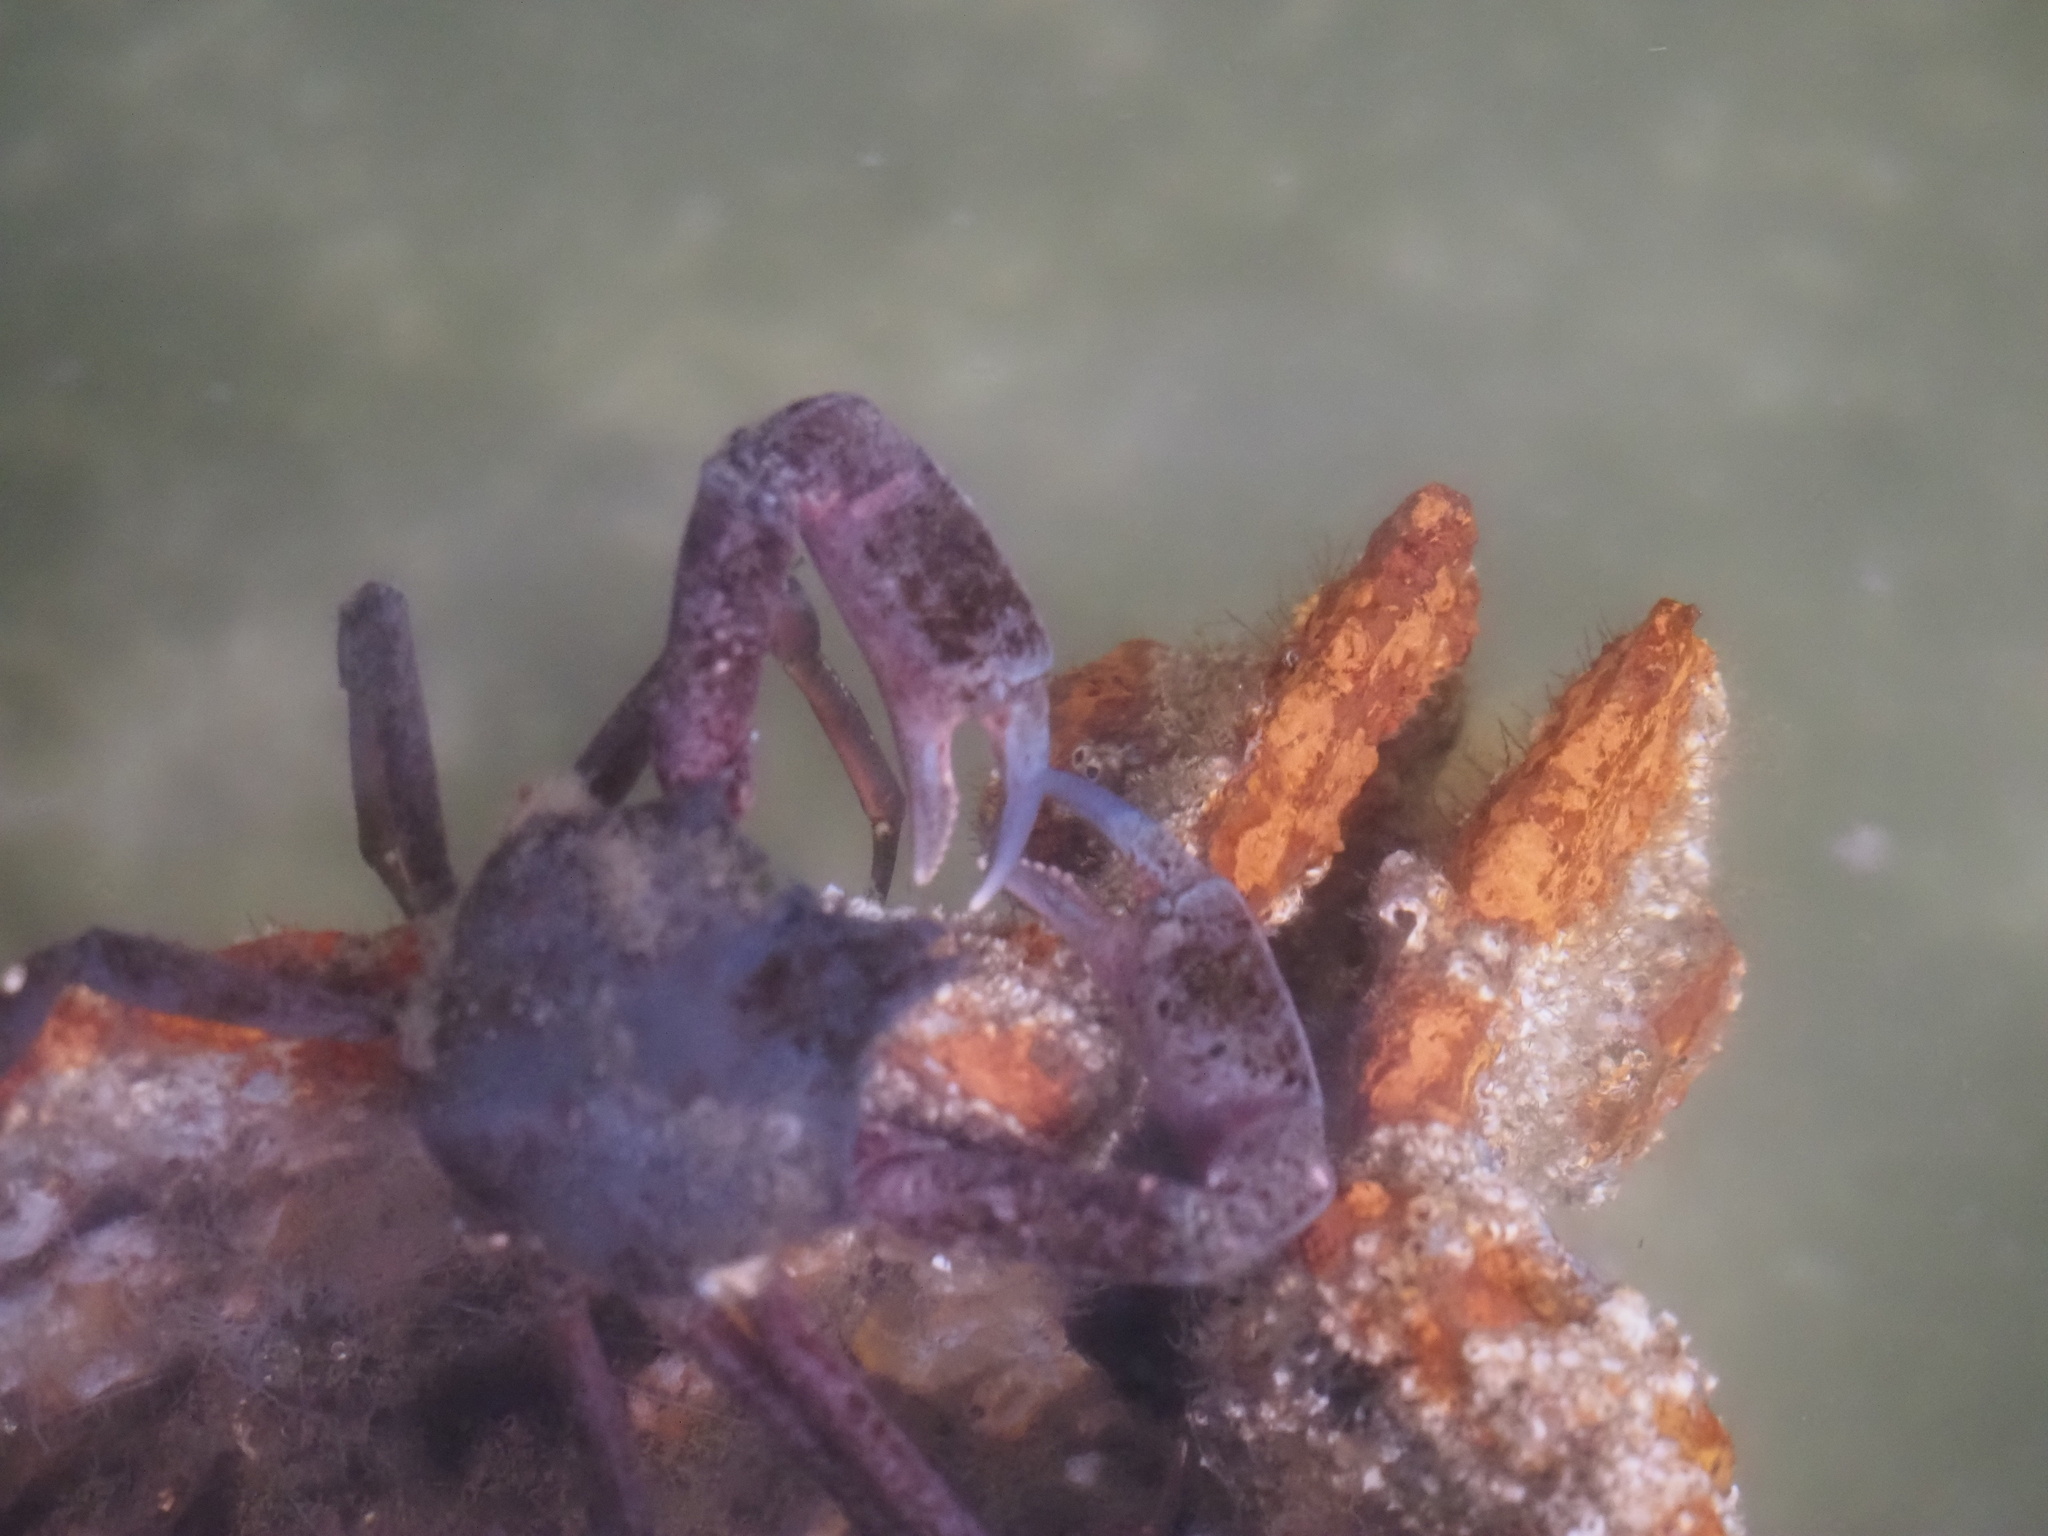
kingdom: Animalia
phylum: Arthropoda
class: Malacostraca
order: Decapoda
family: Epialtidae
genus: Pugettia
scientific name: Pugettia producta
